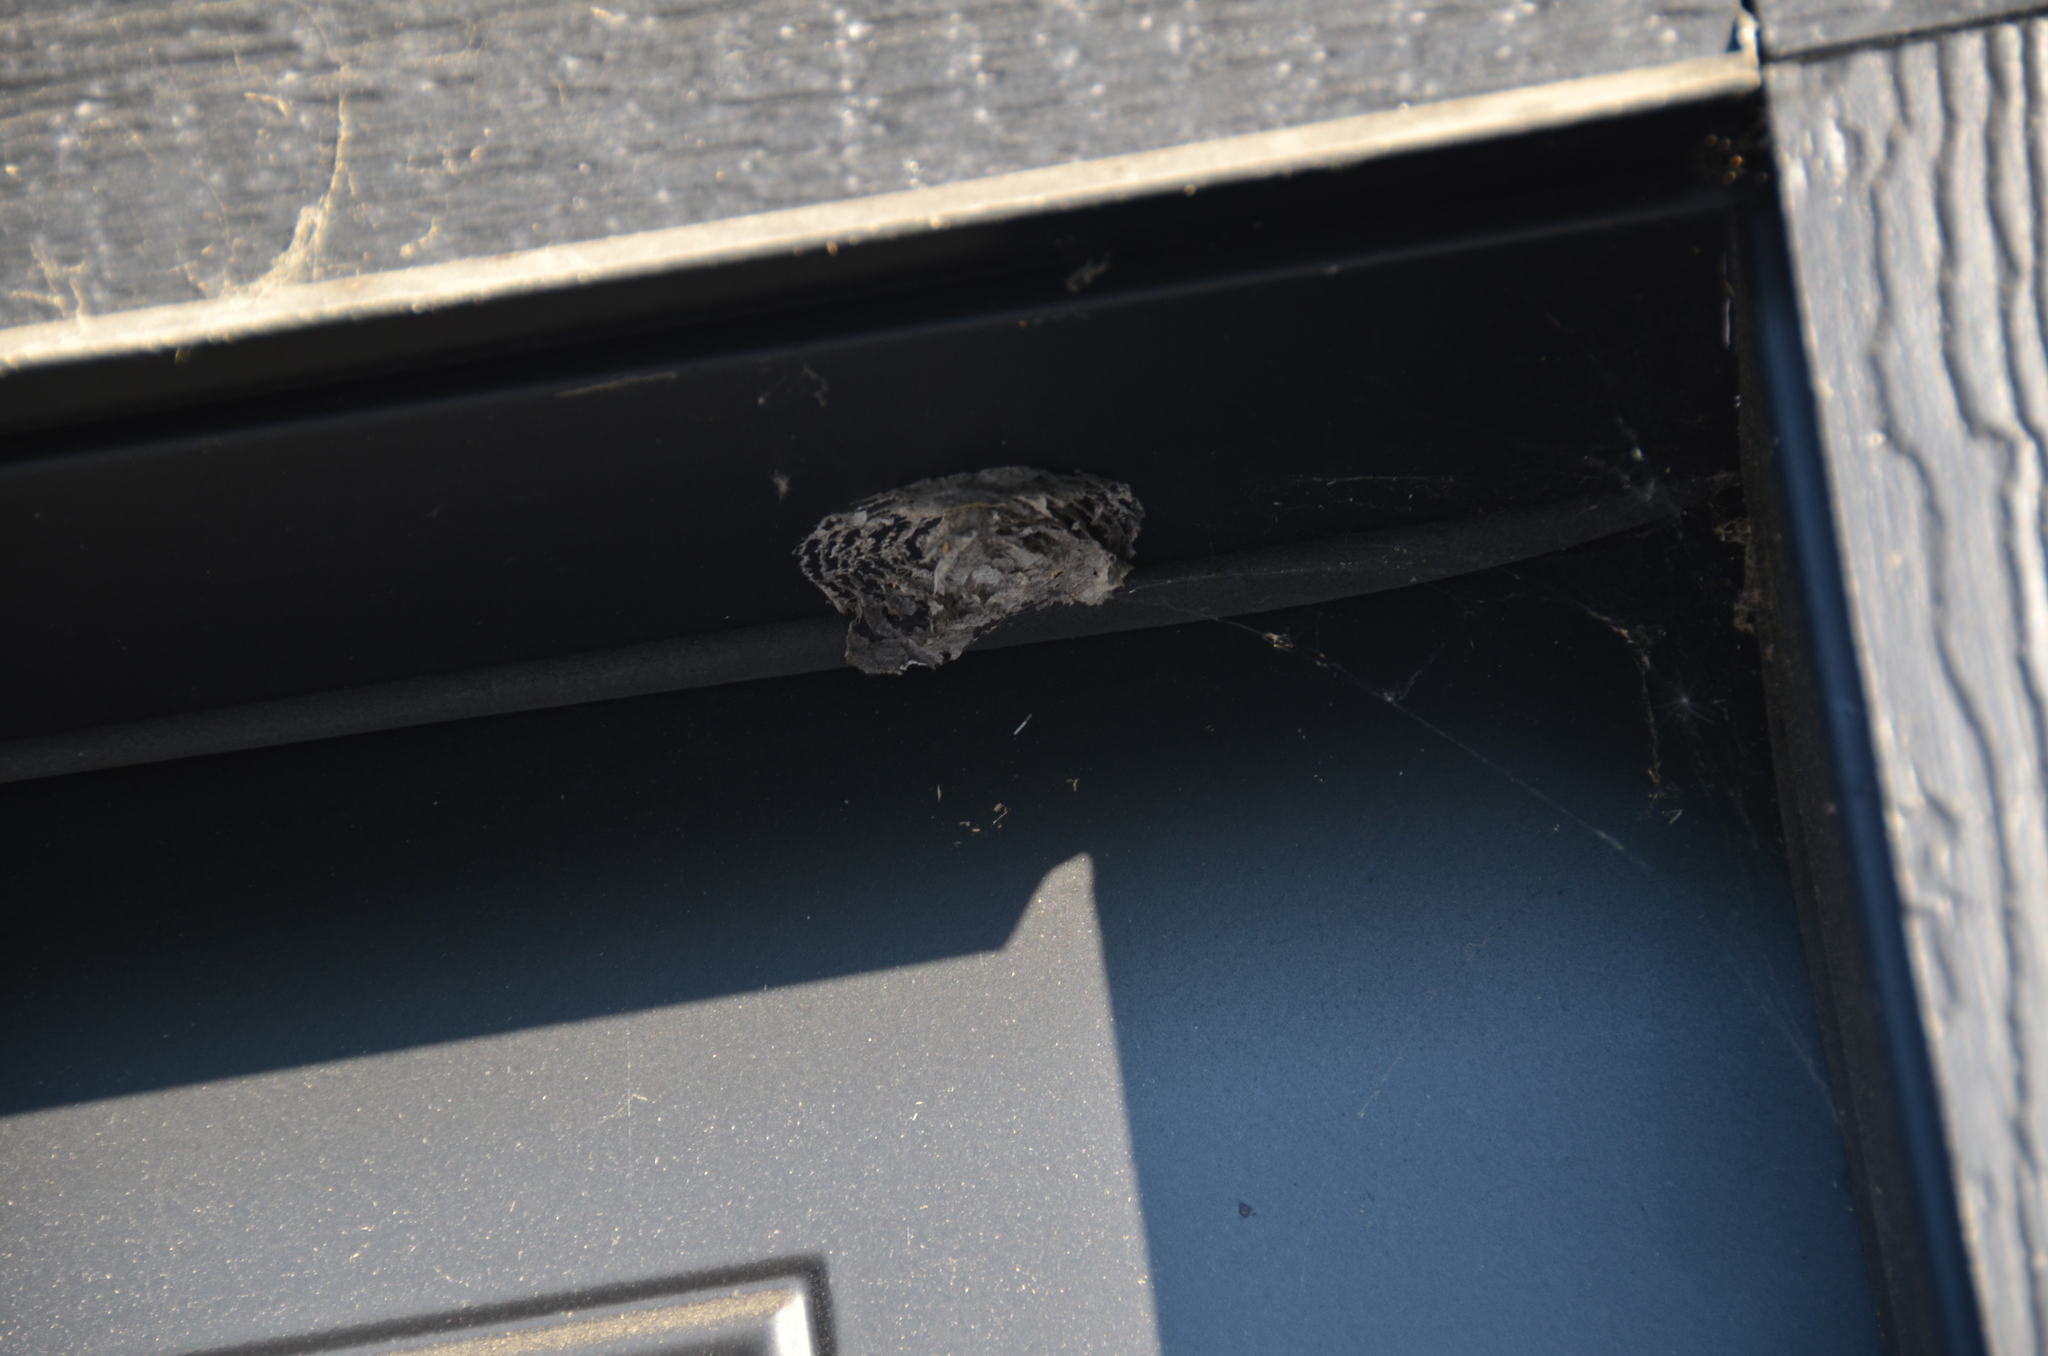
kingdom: Animalia
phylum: Arthropoda
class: Insecta
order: Hymenoptera
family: Vespidae
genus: Dolichovespula
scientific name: Dolichovespula
